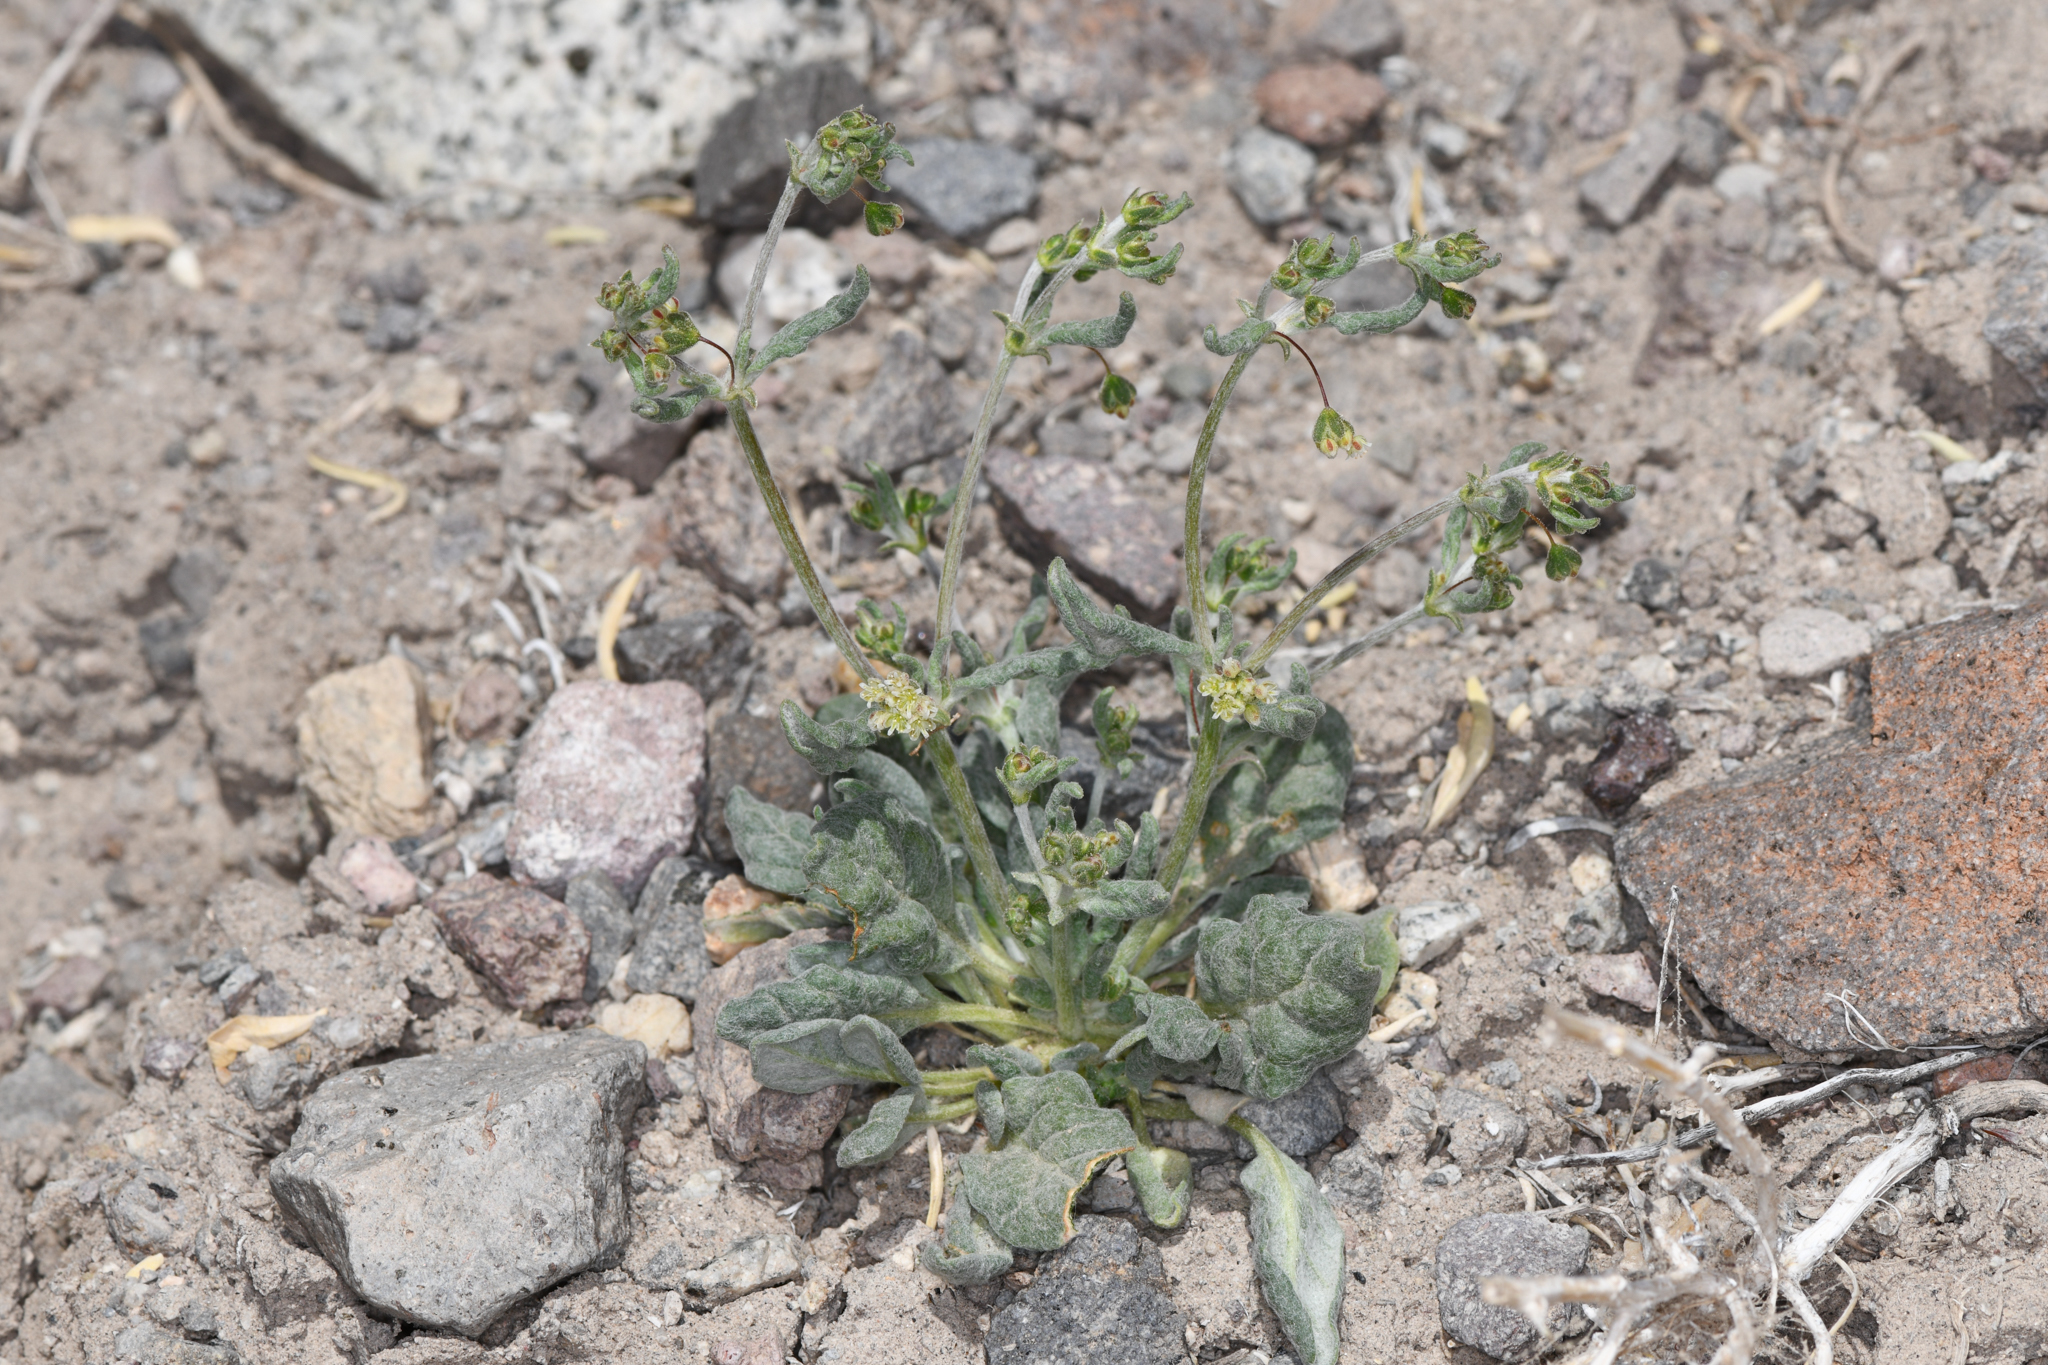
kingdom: Plantae
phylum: Tracheophyta
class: Magnoliopsida
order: Caryophyllales
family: Polygonaceae
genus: Eriogonum
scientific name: Eriogonum maculatum
